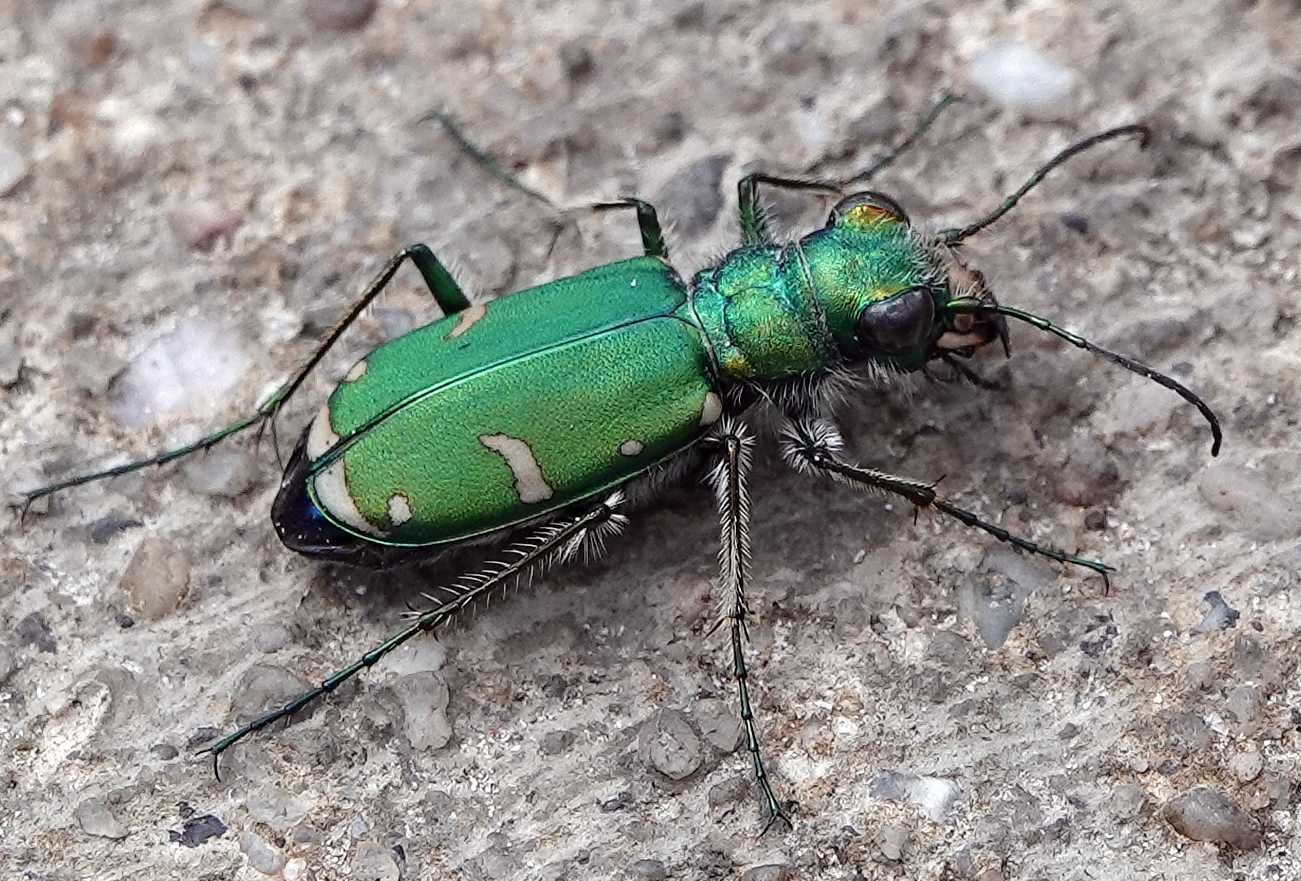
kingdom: Animalia
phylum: Arthropoda
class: Insecta
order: Coleoptera
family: Carabidae
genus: Cicindela
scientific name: Cicindela denverensis
